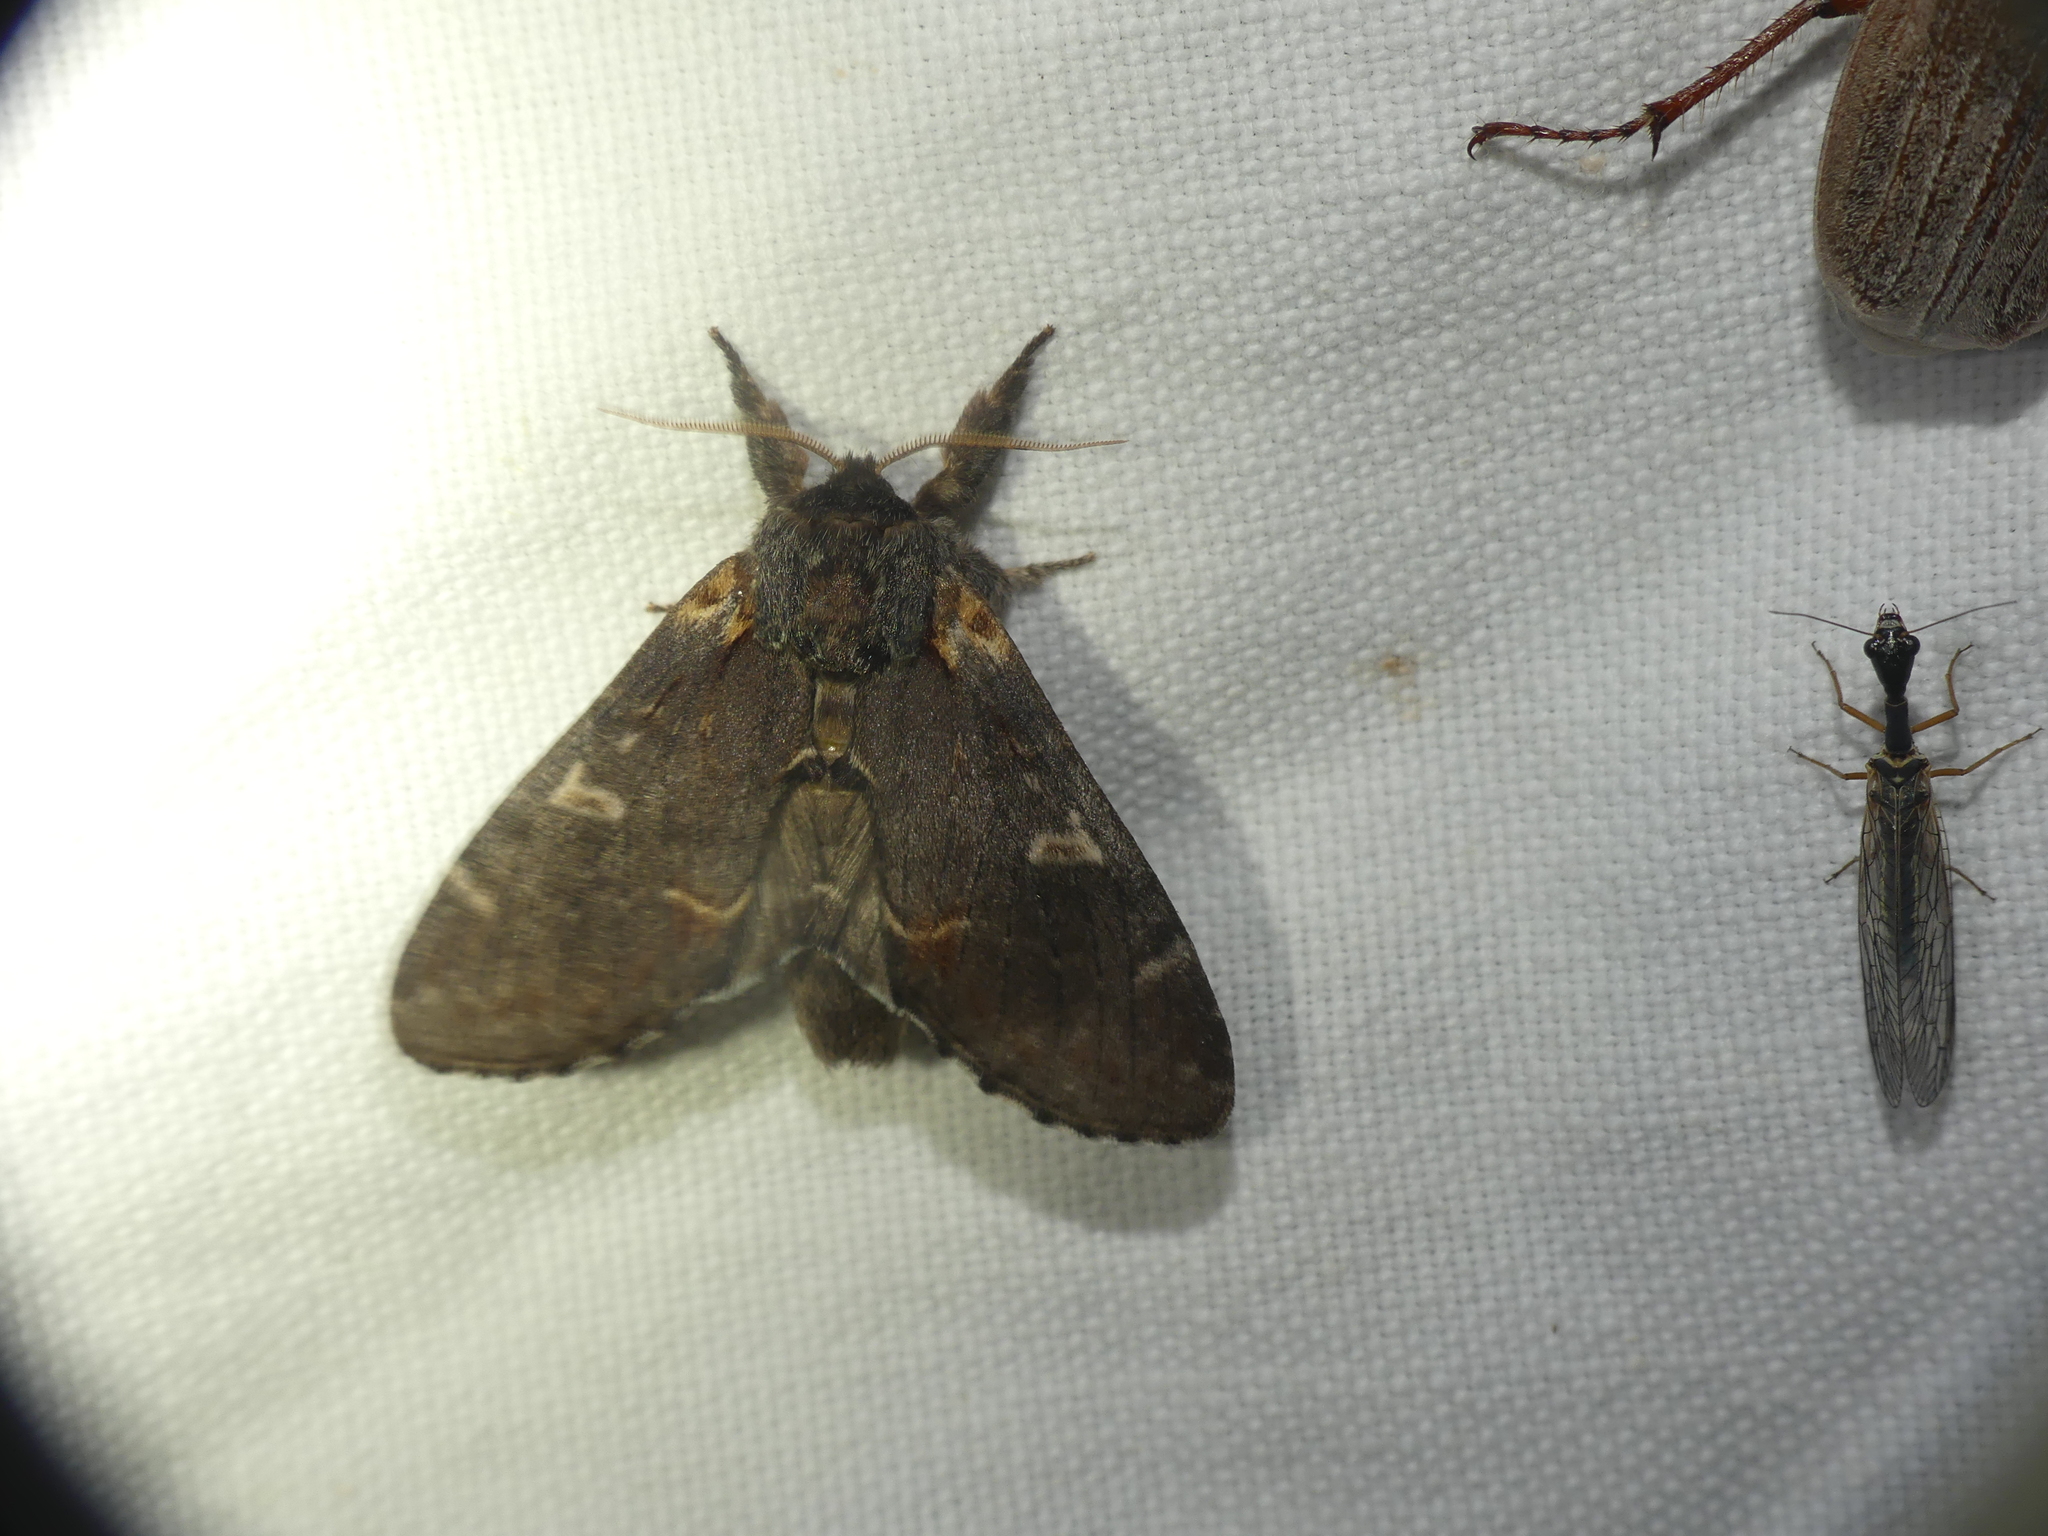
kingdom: Animalia
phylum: Arthropoda
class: Insecta
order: Lepidoptera
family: Notodontidae
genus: Notodonta
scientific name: Notodonta dromedarius
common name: Iron prominent
